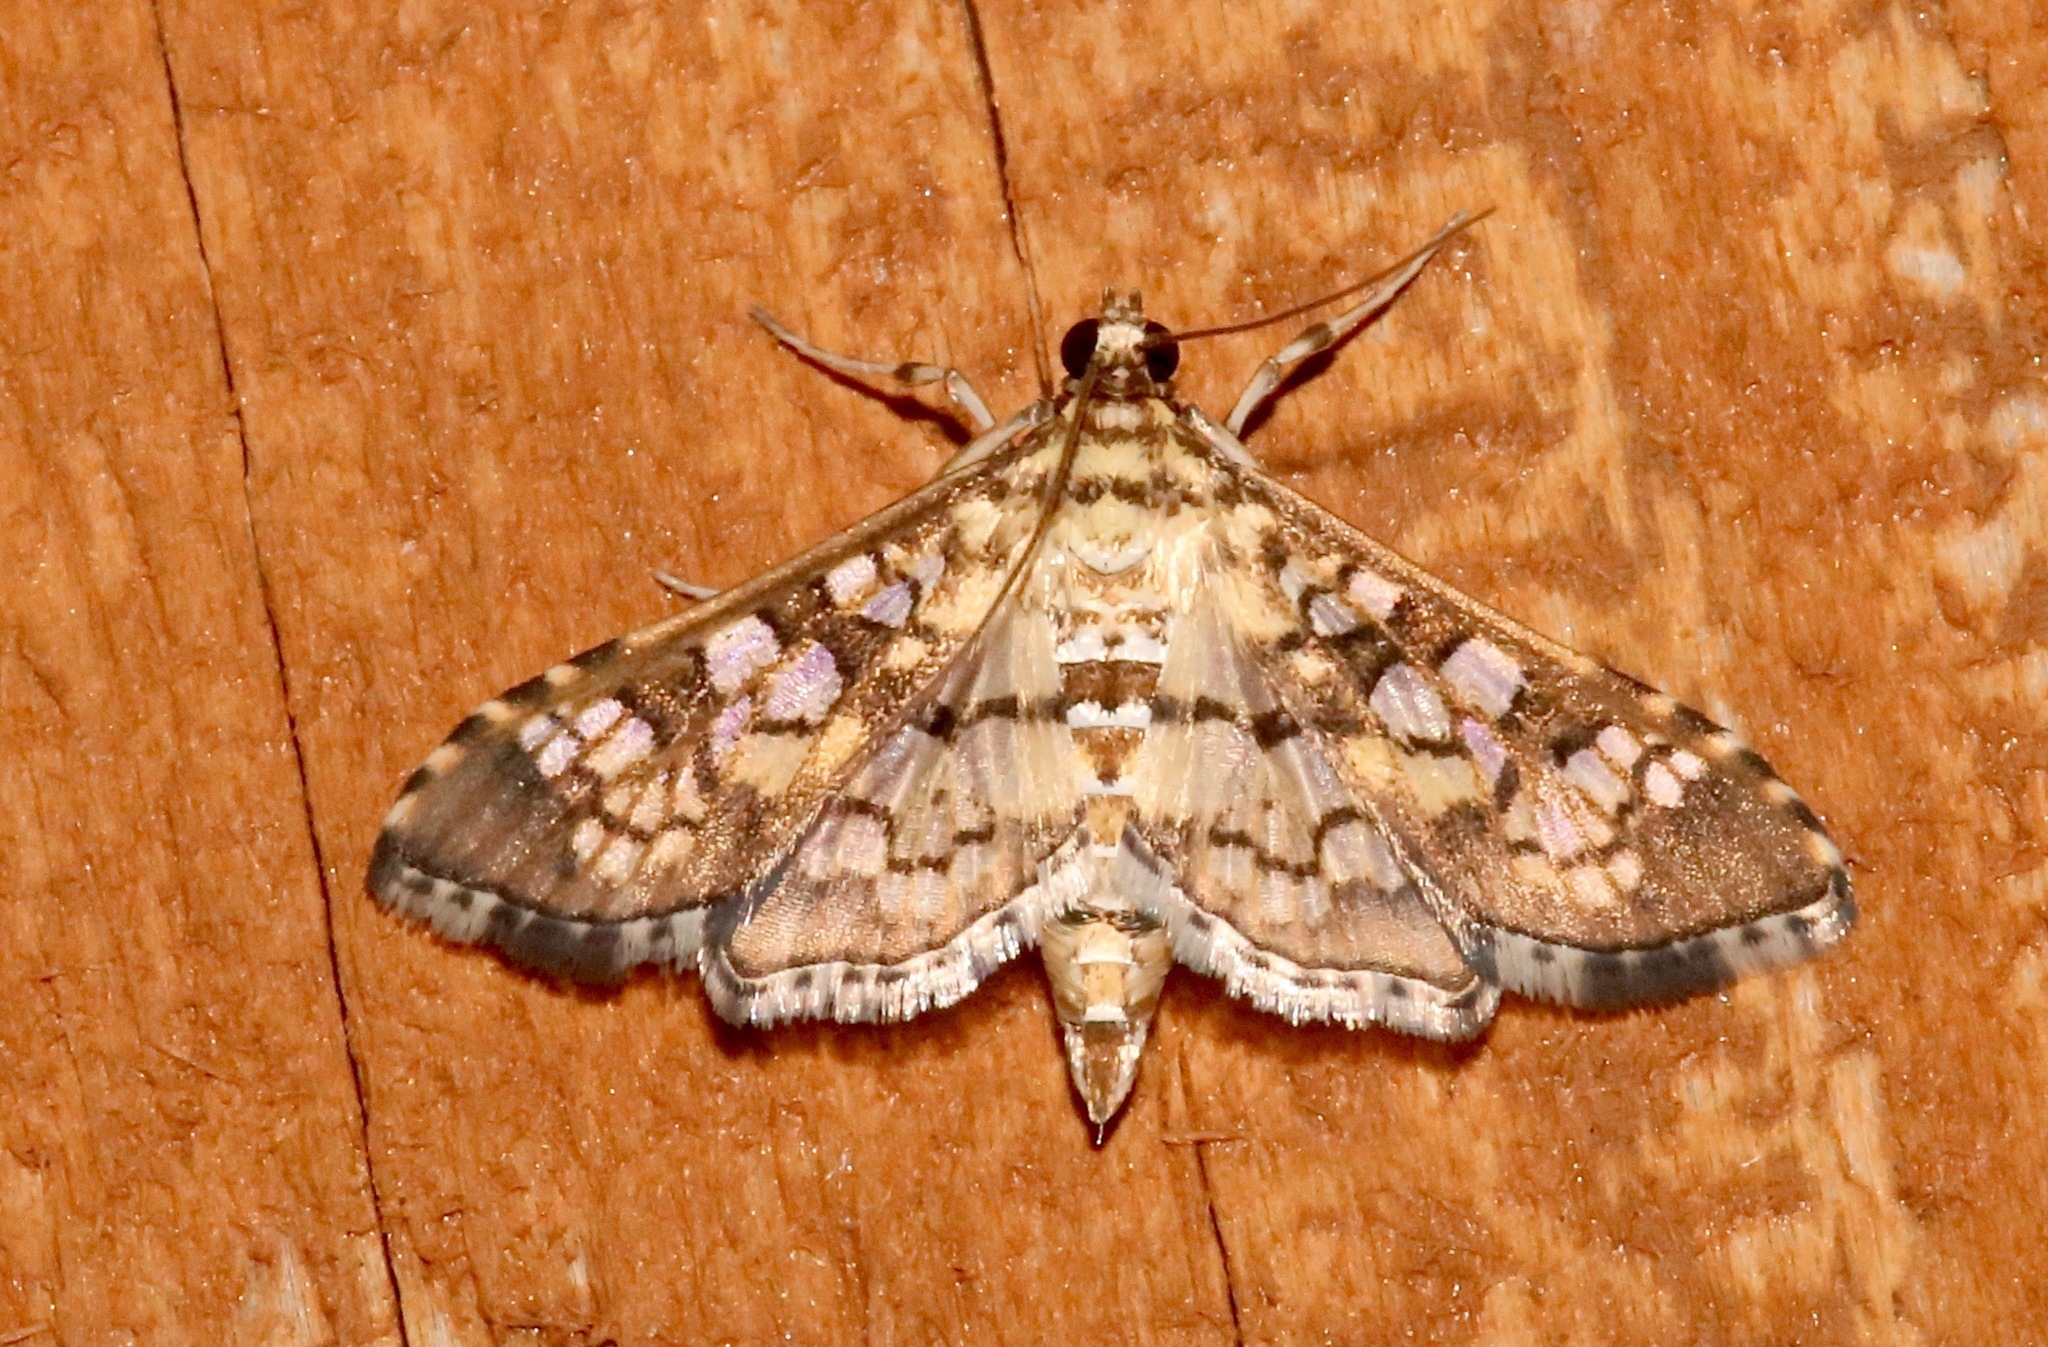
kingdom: Animalia
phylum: Arthropoda
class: Insecta
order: Lepidoptera
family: Crambidae
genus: Samea
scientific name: Samea ecclesialis
